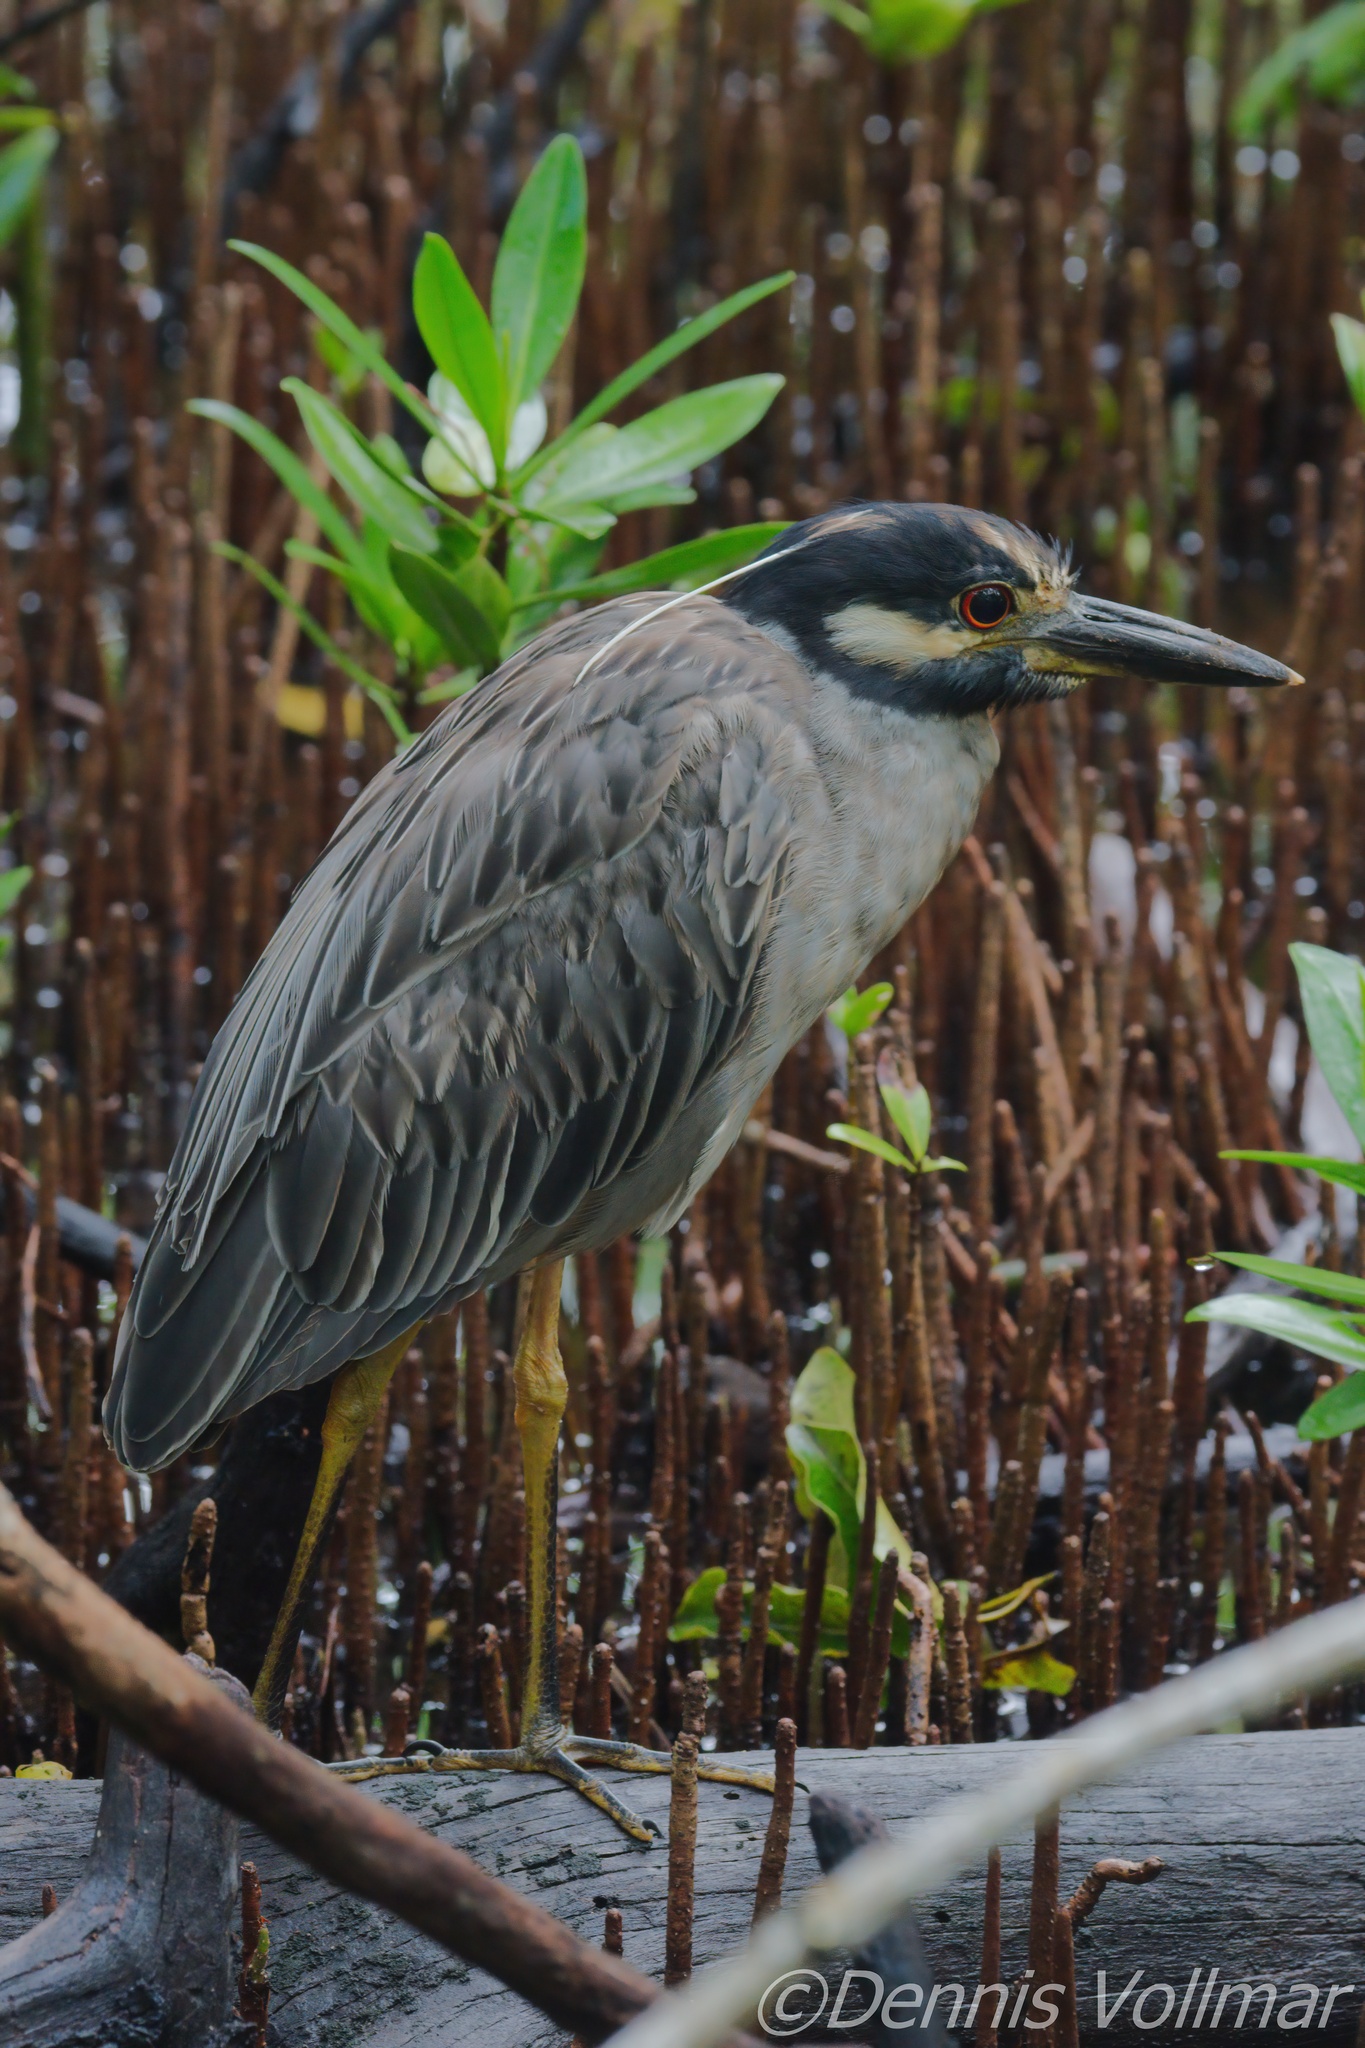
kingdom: Animalia
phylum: Chordata
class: Aves
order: Pelecaniformes
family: Ardeidae
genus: Nyctanassa
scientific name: Nyctanassa violacea
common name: Yellow-crowned night heron
